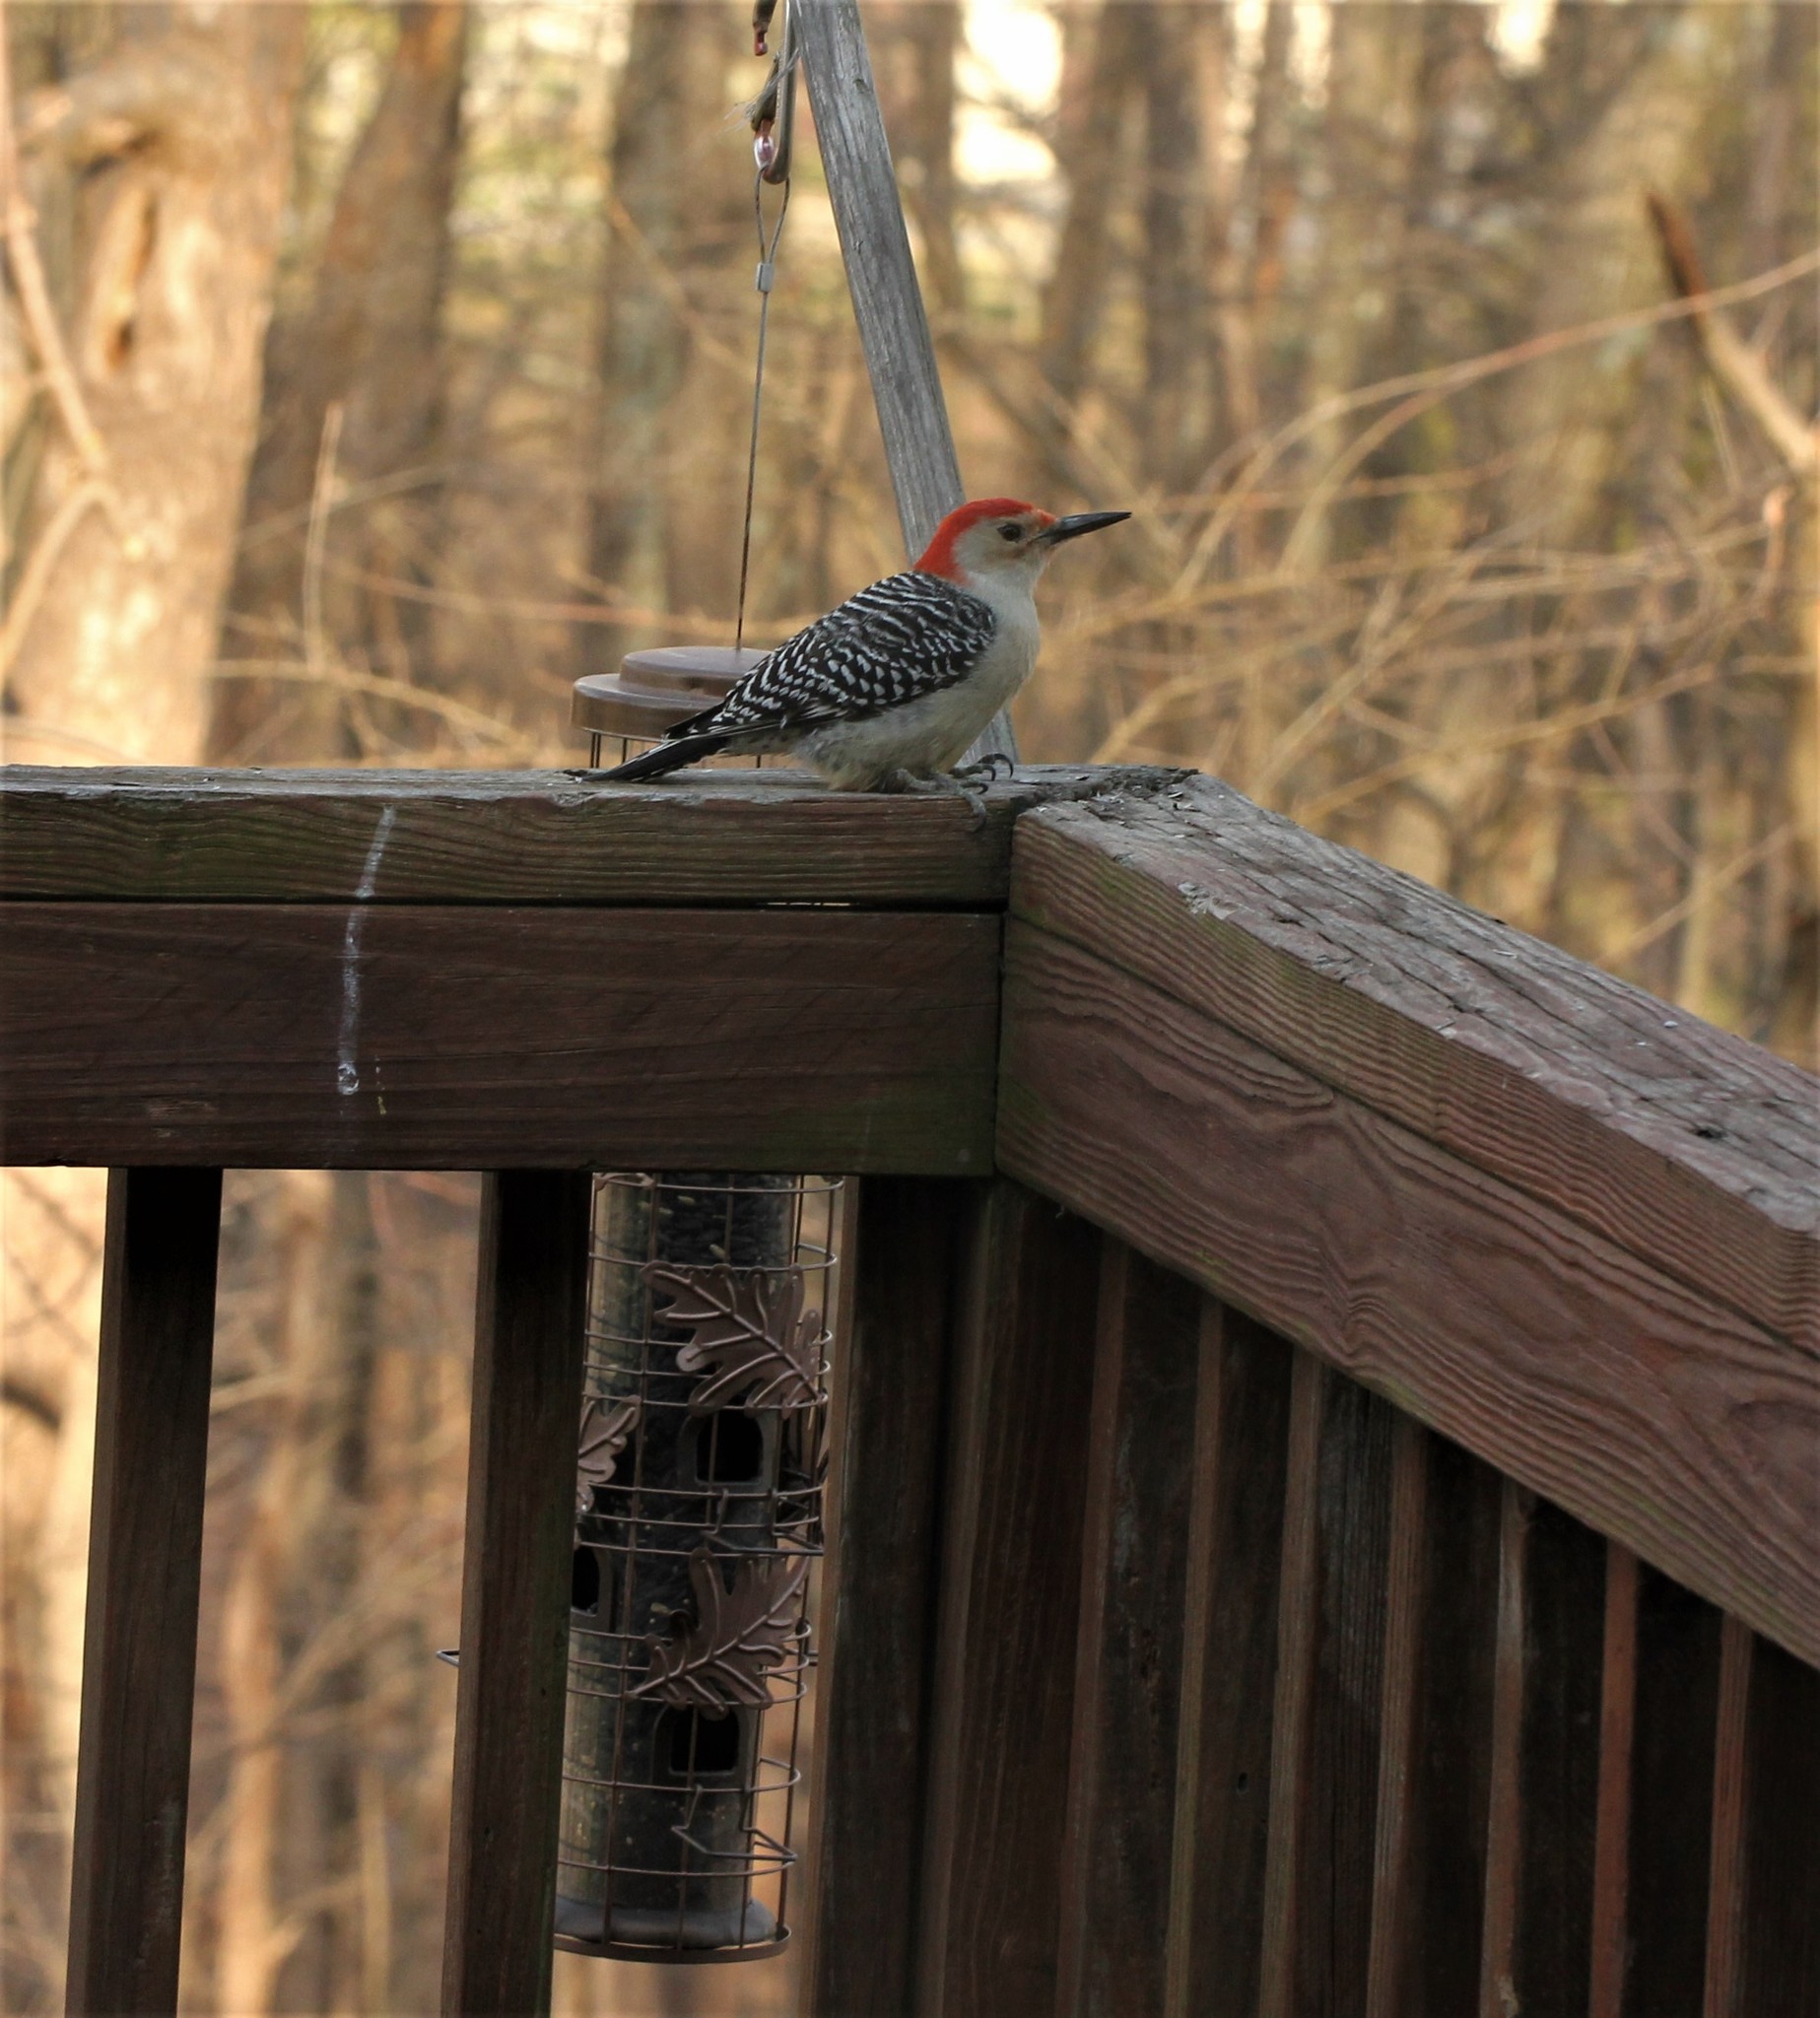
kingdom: Animalia
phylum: Chordata
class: Aves
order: Piciformes
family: Picidae
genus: Melanerpes
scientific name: Melanerpes carolinus
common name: Red-bellied woodpecker
